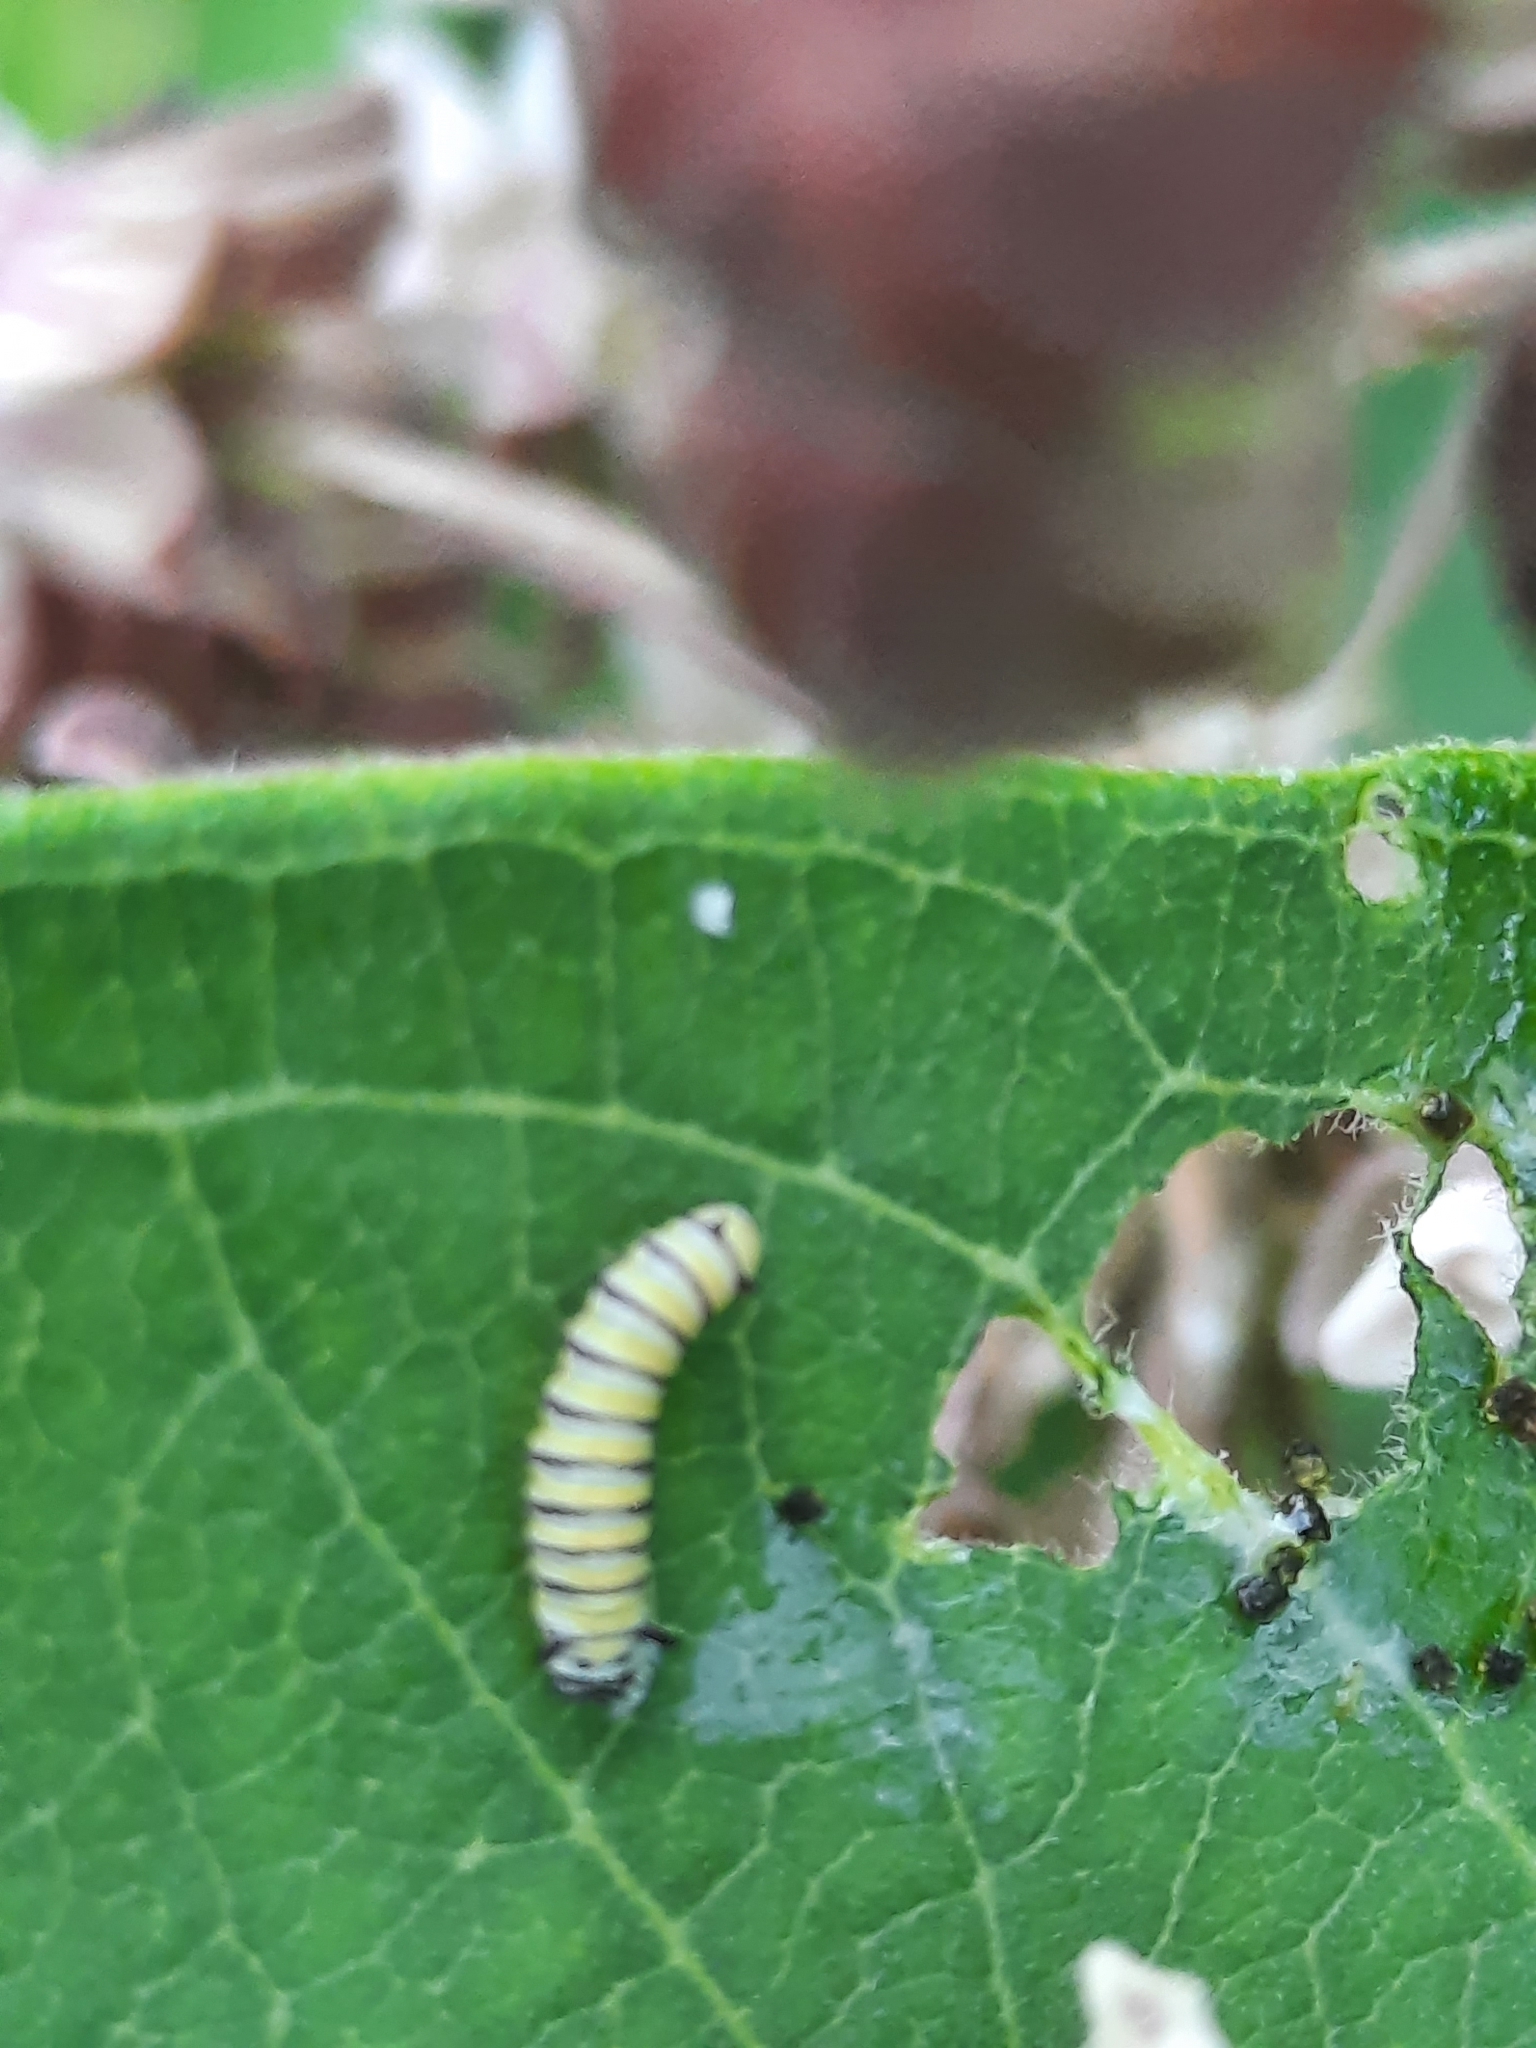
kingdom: Animalia
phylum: Arthropoda
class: Insecta
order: Lepidoptera
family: Nymphalidae
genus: Danaus
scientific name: Danaus plexippus
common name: Monarch
